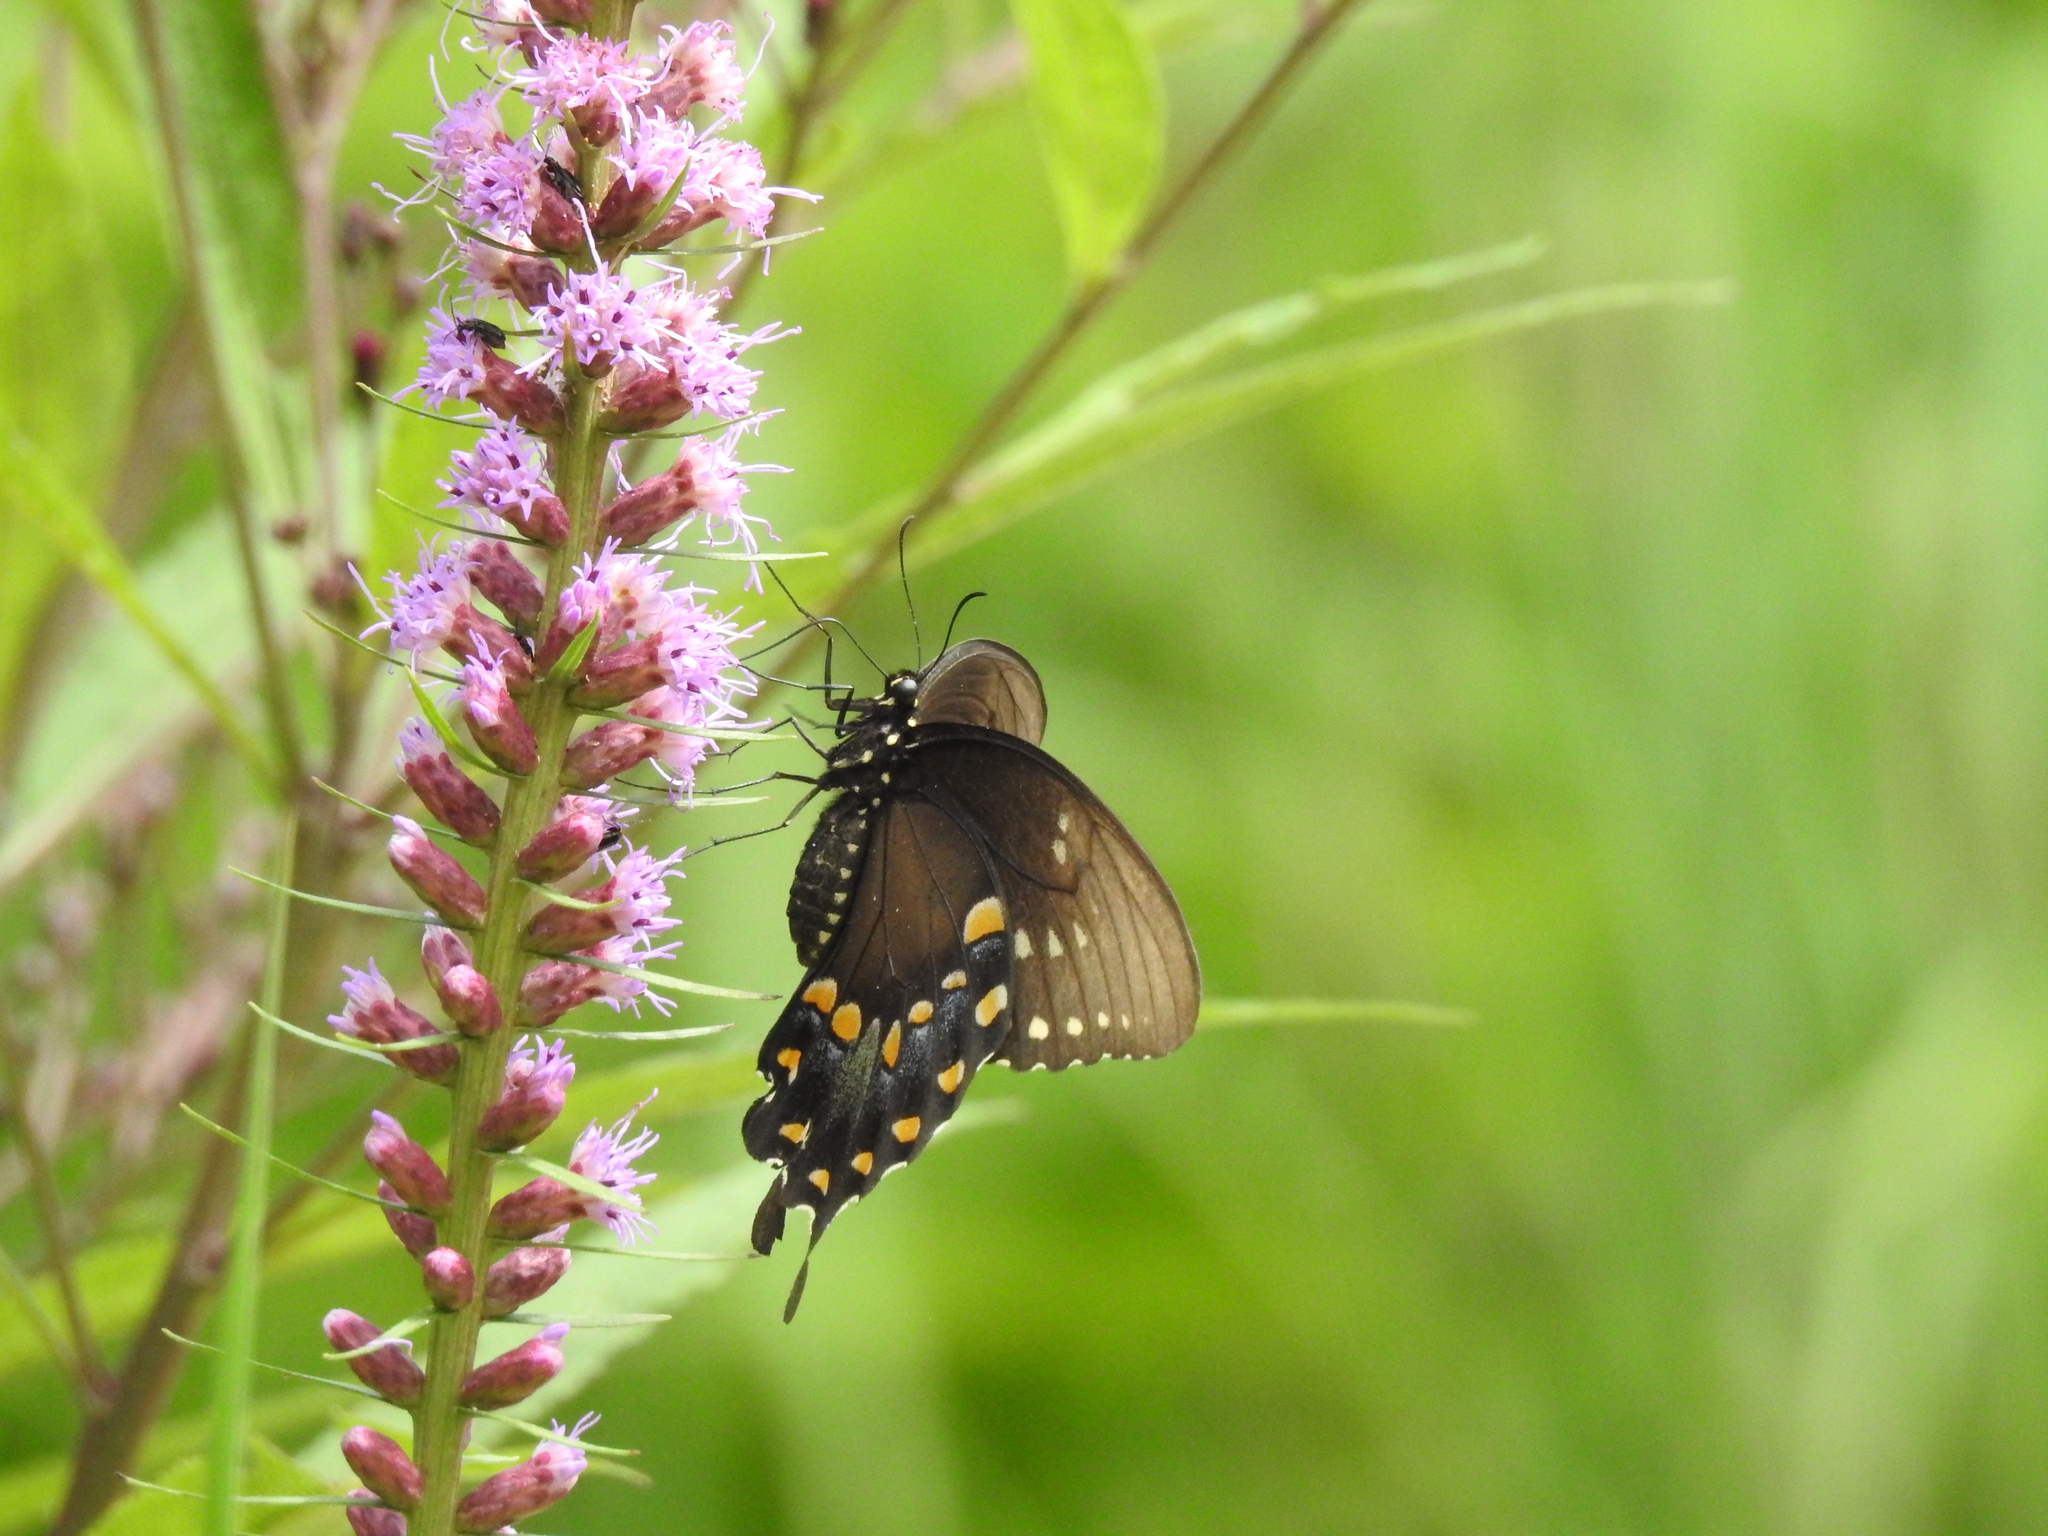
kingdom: Animalia
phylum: Arthropoda
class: Insecta
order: Lepidoptera
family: Papilionidae
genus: Papilio
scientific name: Papilio troilus
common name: Spicebush swallowtail
